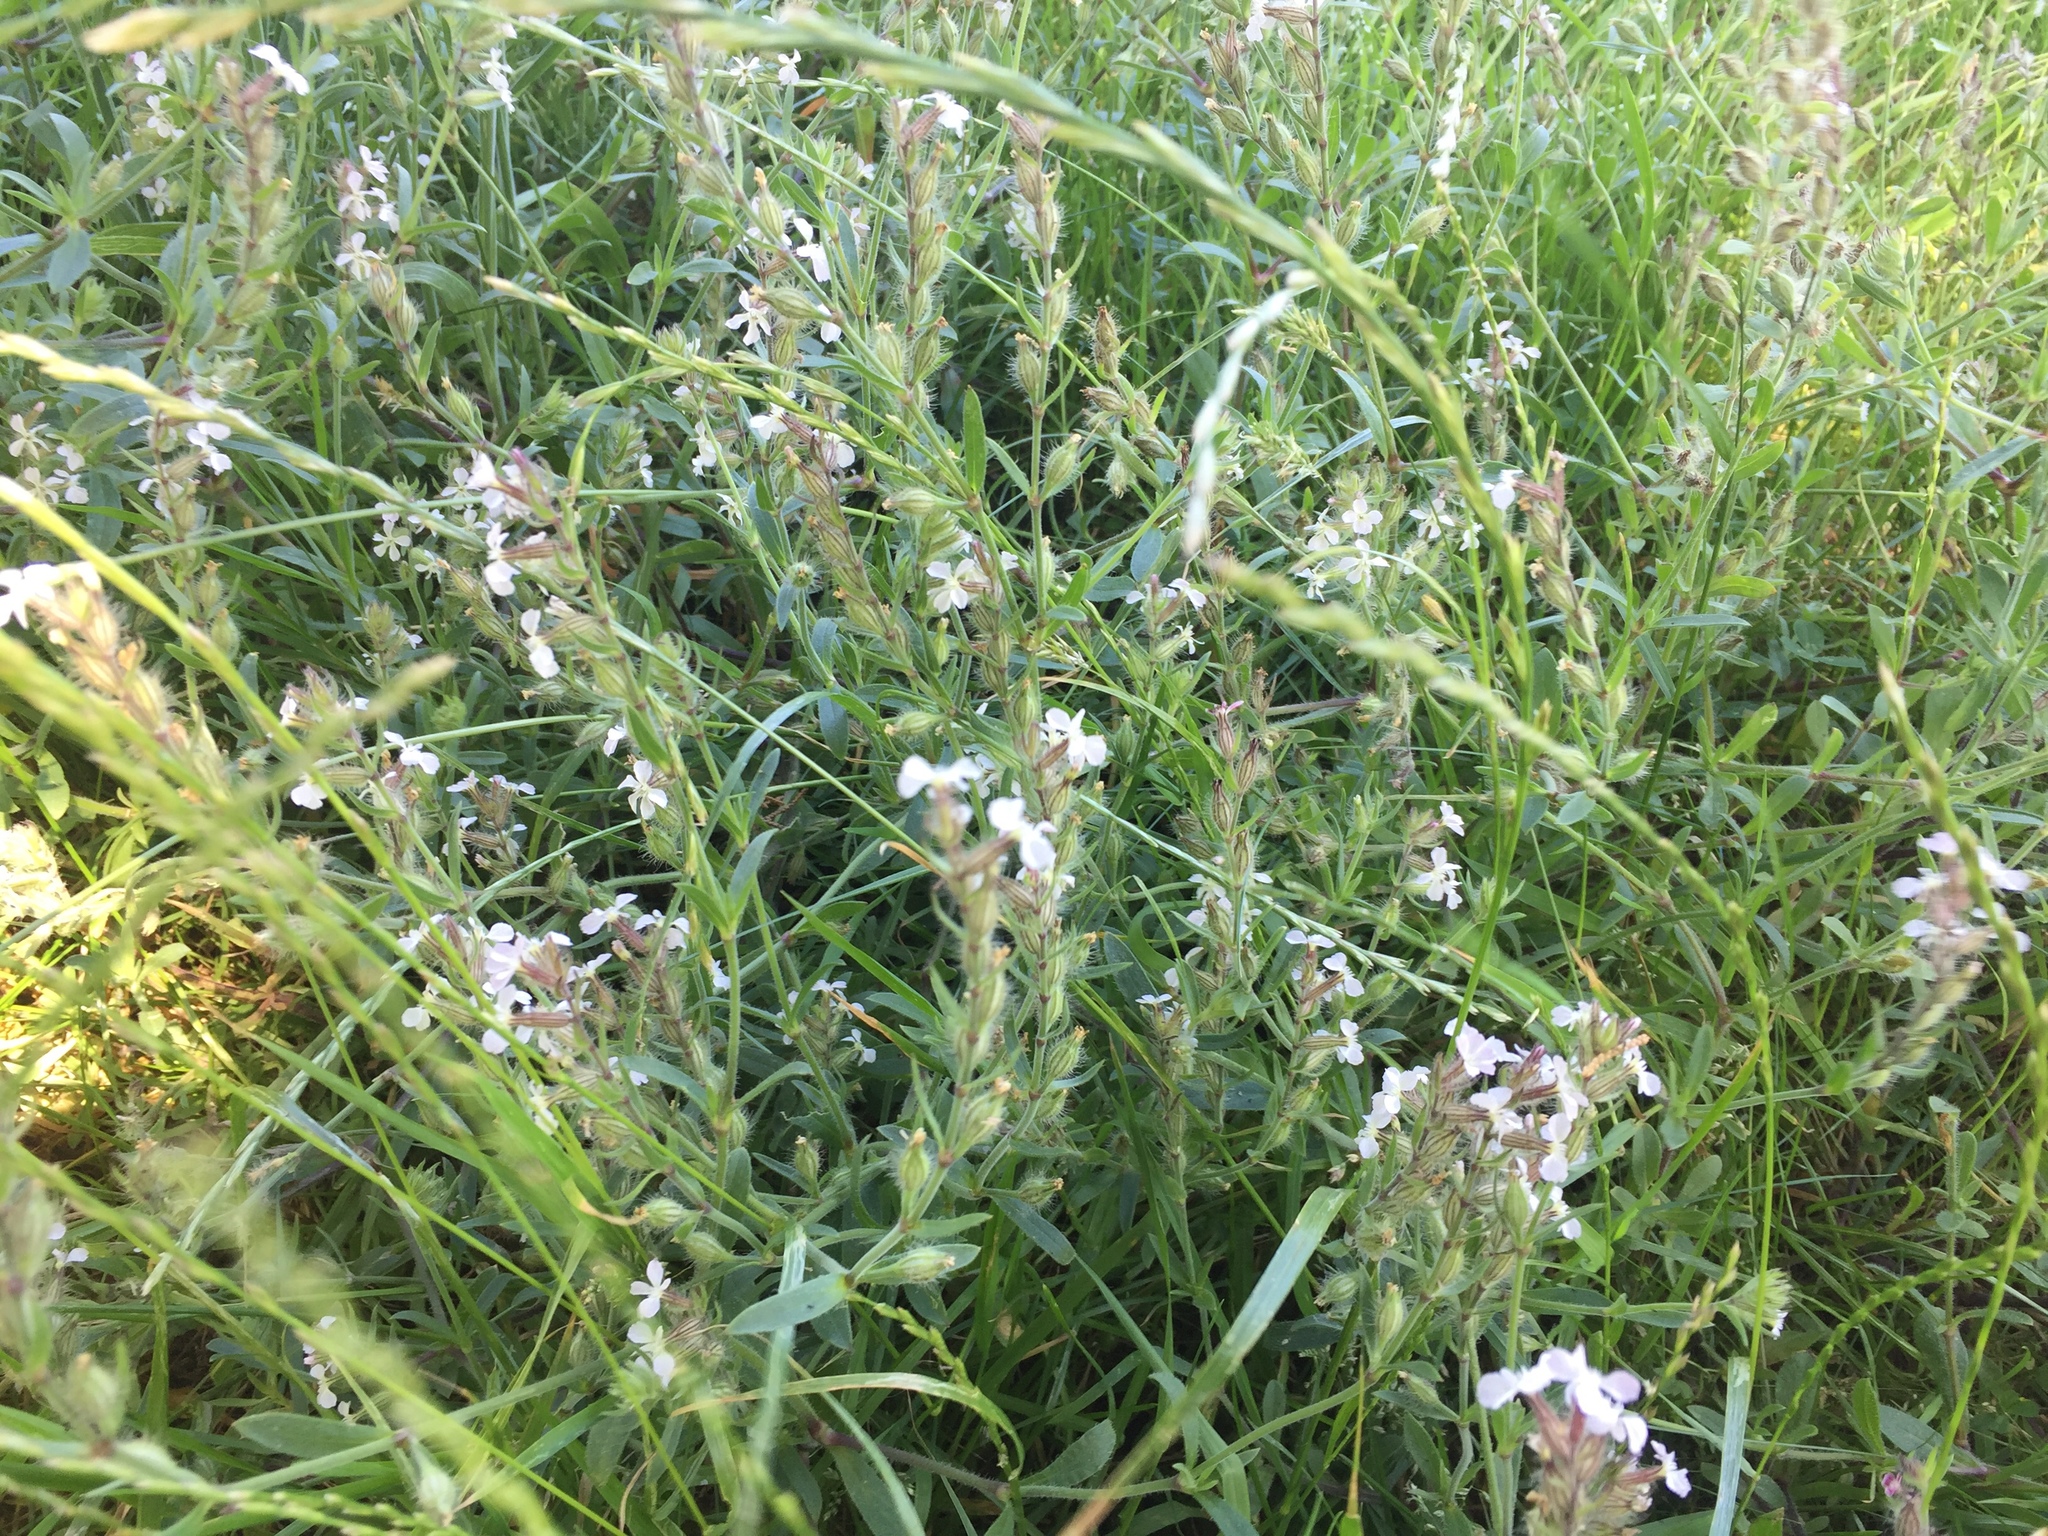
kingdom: Plantae
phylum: Tracheophyta
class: Magnoliopsida
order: Caryophyllales
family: Caryophyllaceae
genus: Silene
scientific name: Silene gallica
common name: Small-flowered catchfly
